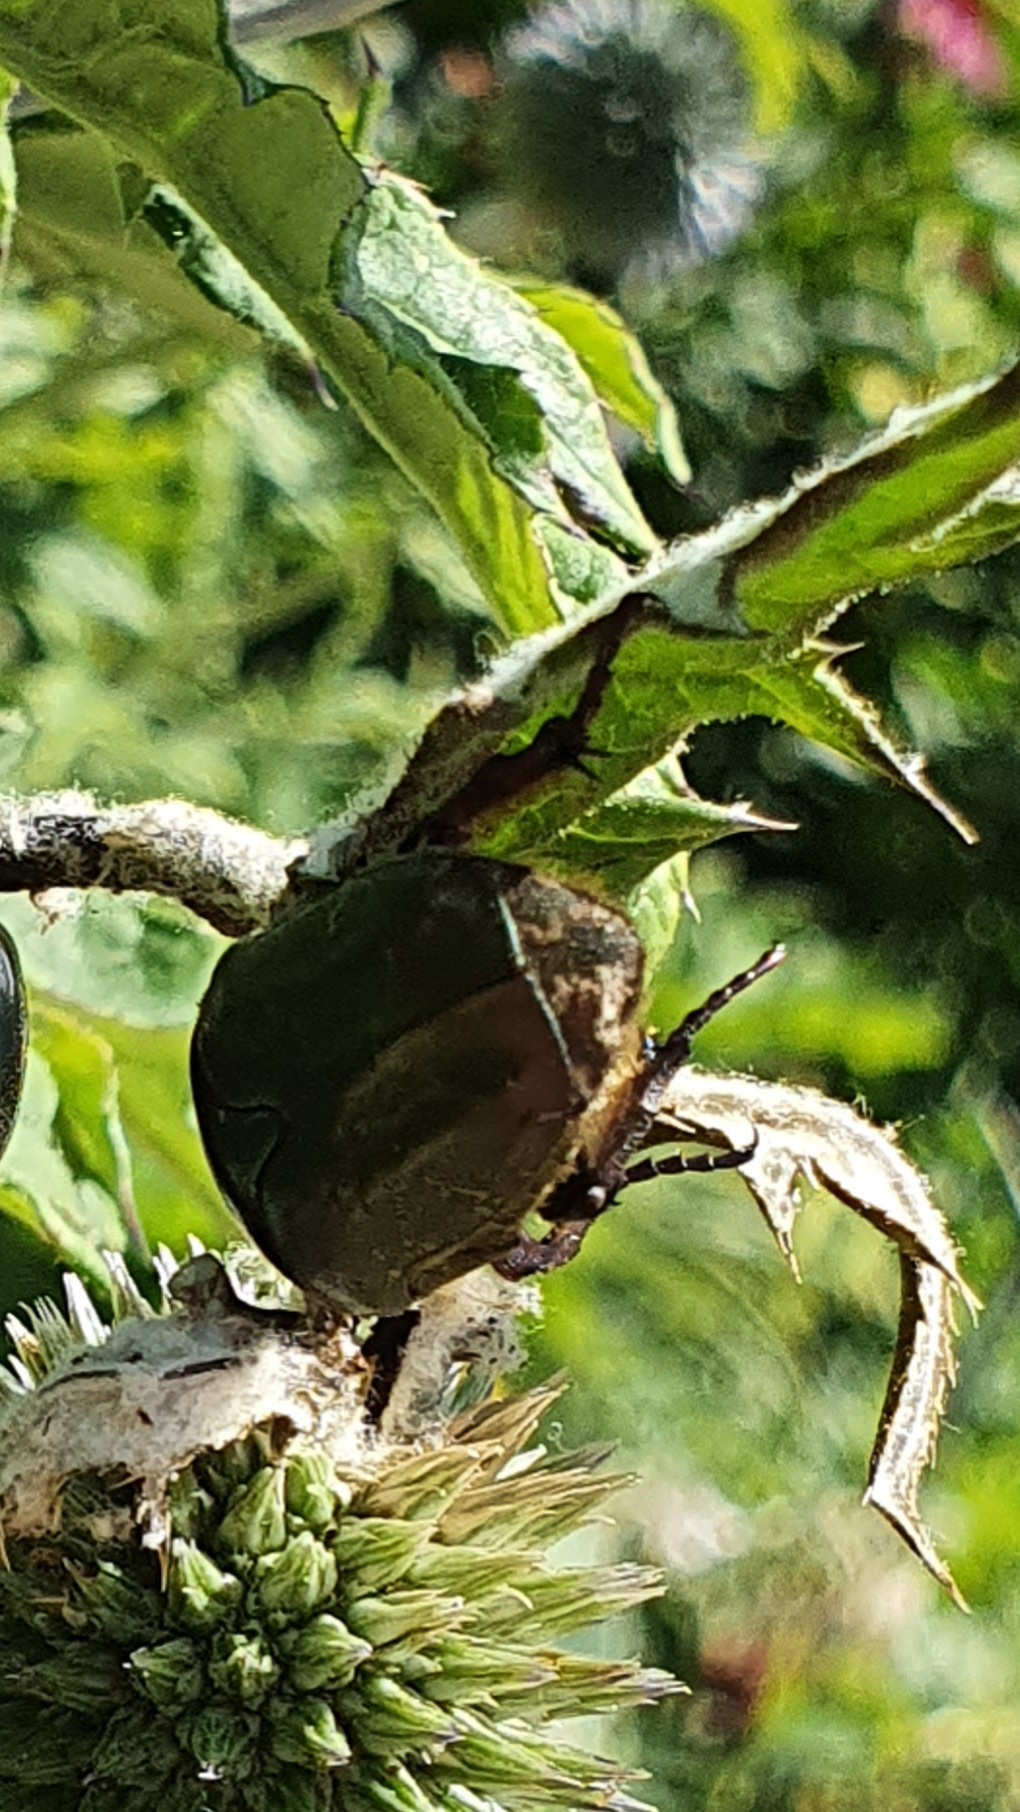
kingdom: Animalia
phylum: Arthropoda
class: Insecta
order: Coleoptera
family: Scarabaeidae
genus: Protaetia
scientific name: Protaetia cuprea
